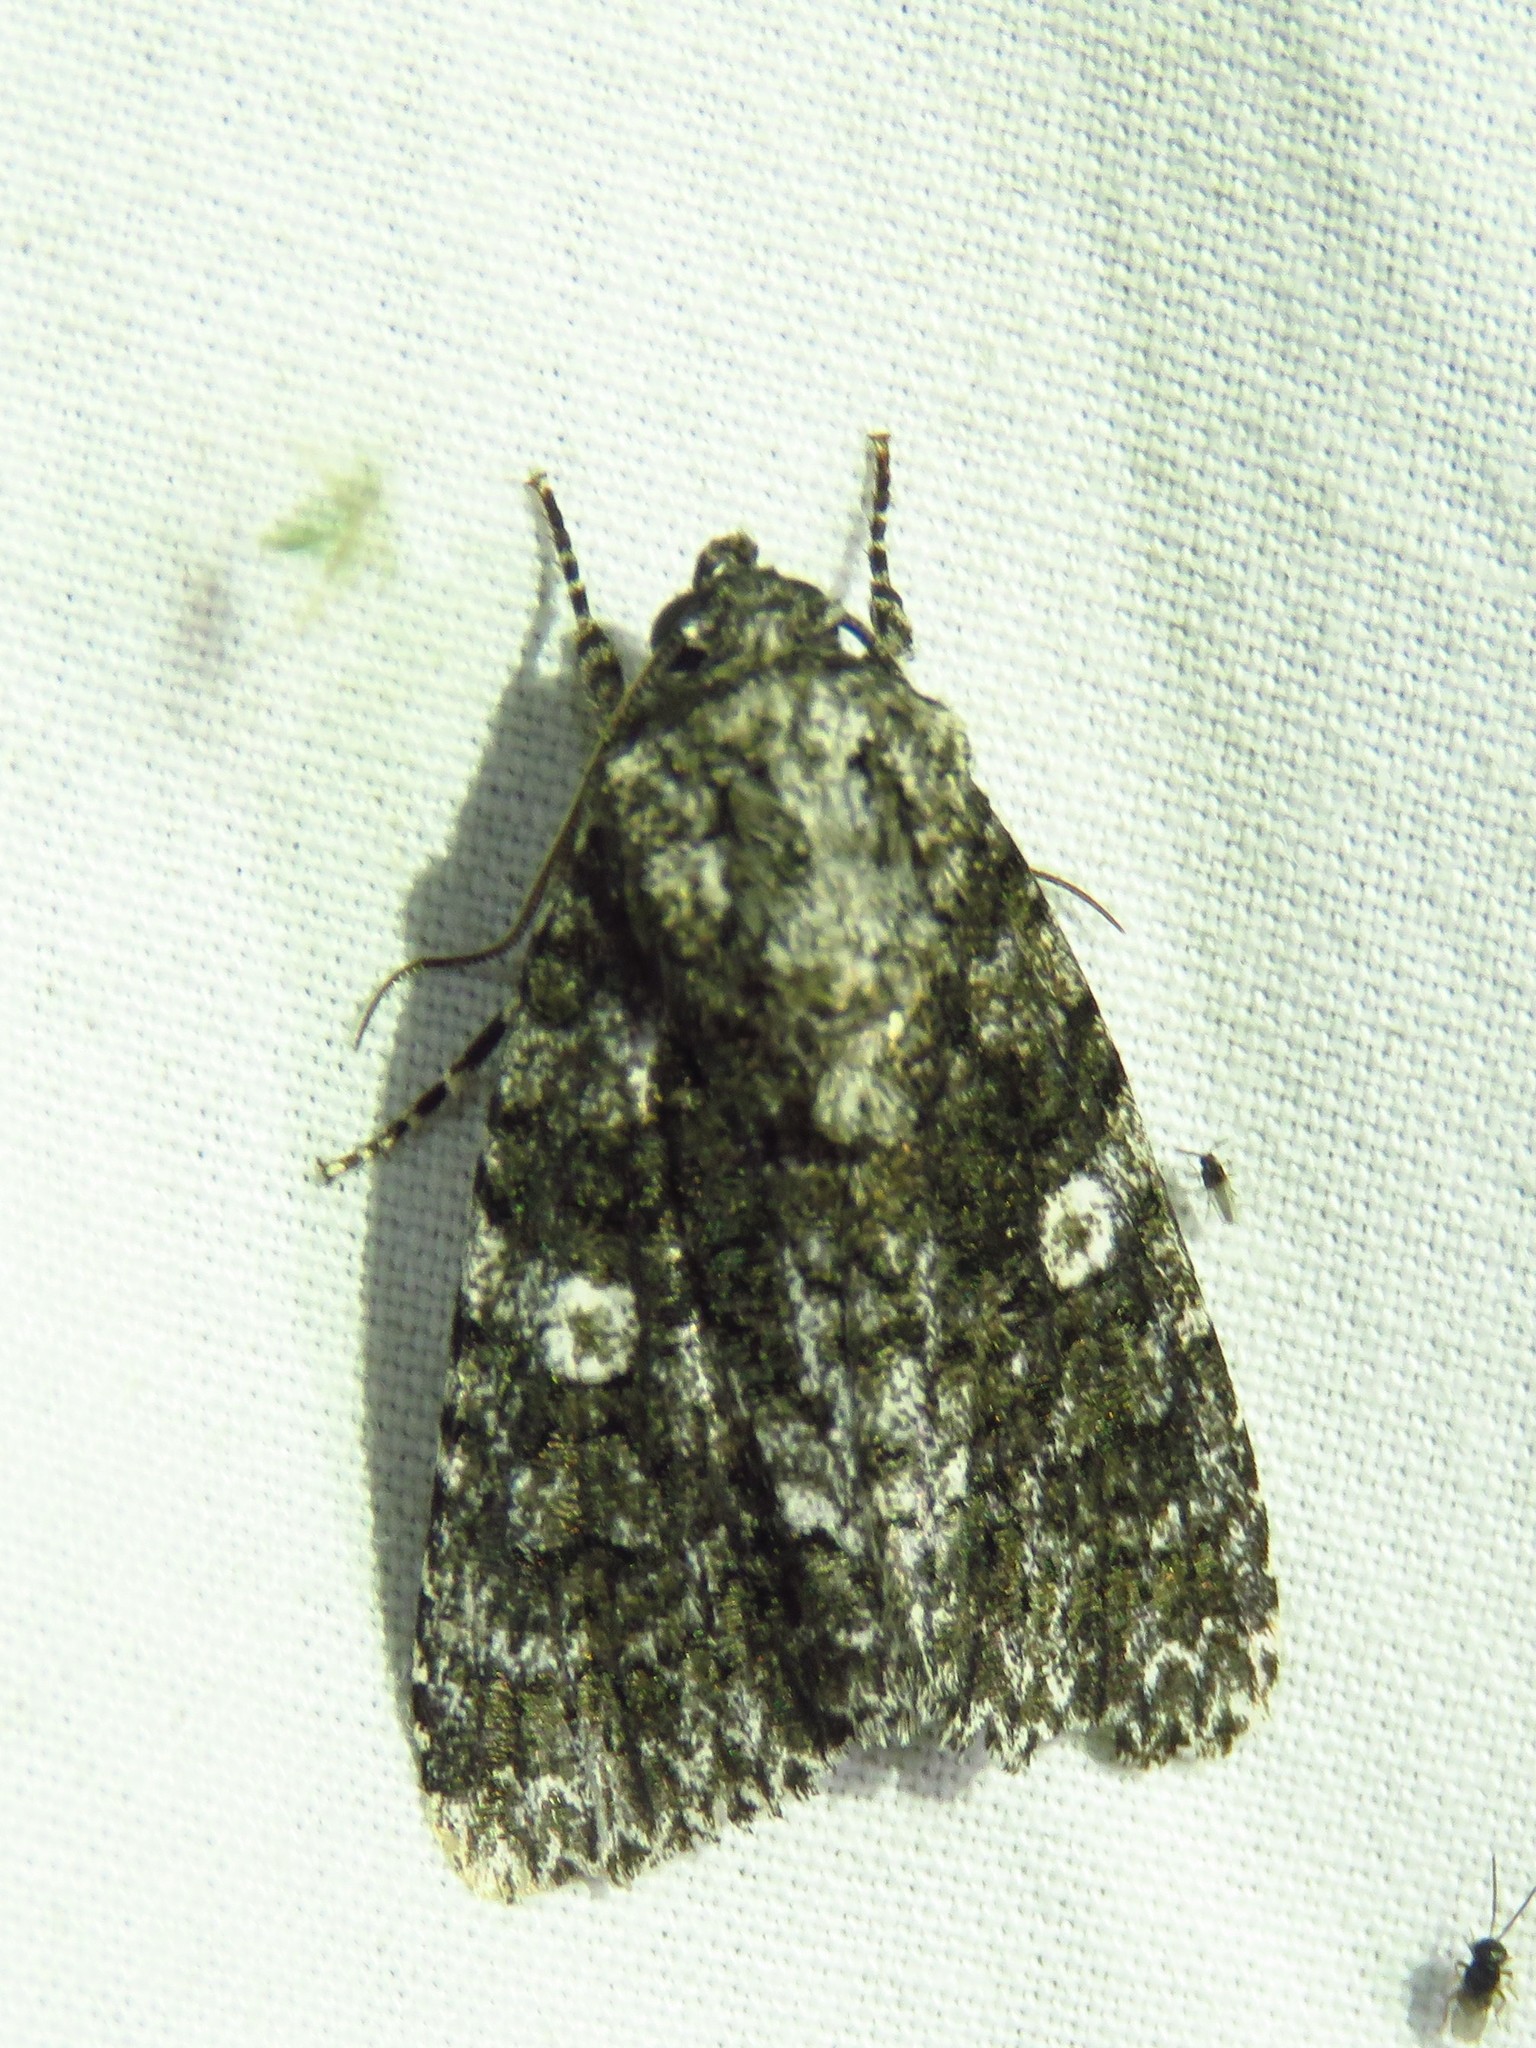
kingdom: Animalia
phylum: Arthropoda
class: Insecta
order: Lepidoptera
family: Noctuidae
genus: Acronicta
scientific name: Acronicta afflicta
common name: Afflicted dagger moth
